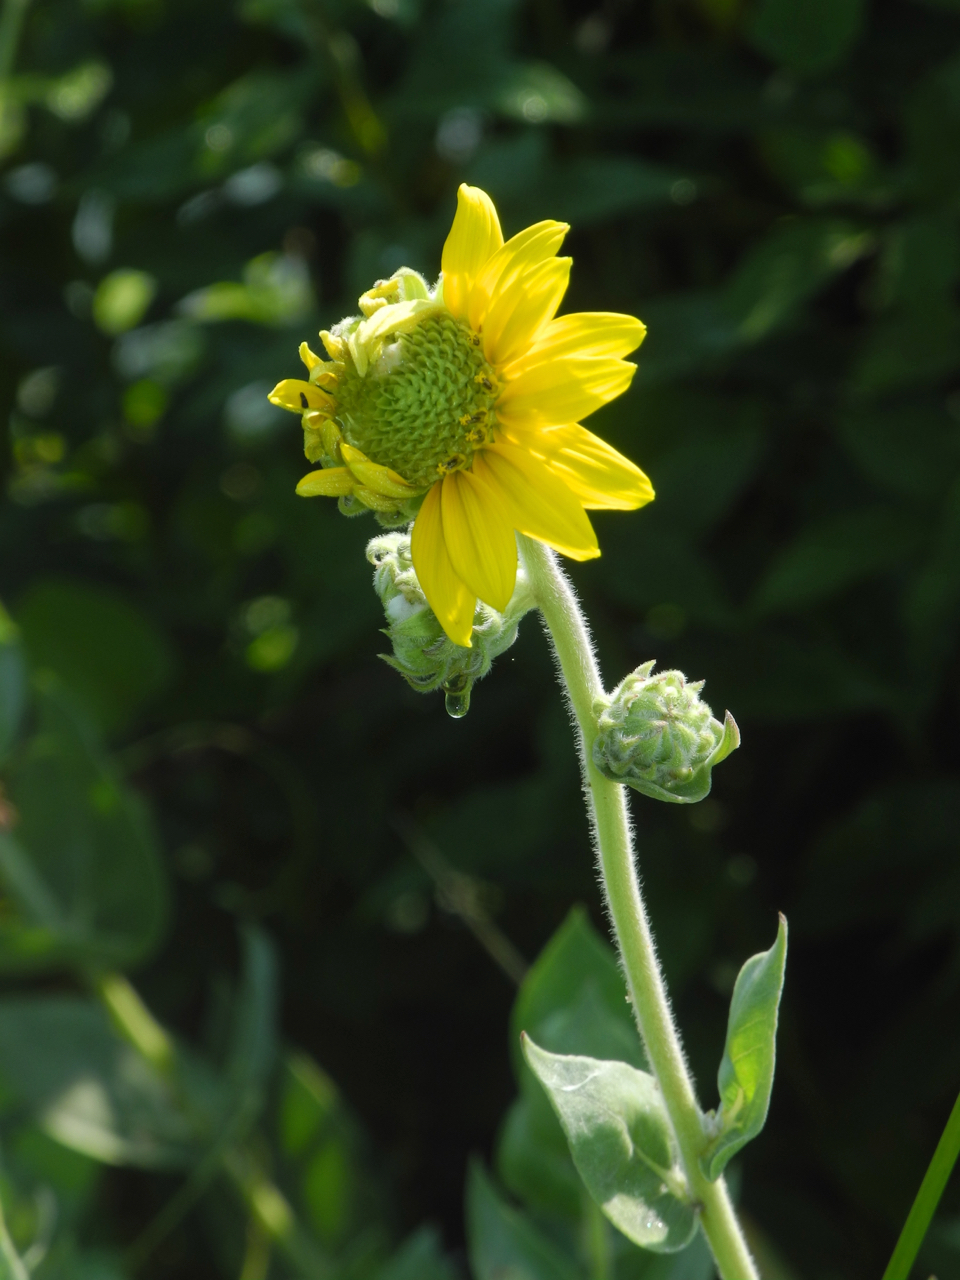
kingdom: Plantae
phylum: Tracheophyta
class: Magnoliopsida
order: Asterales
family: Asteraceae
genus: Helianthus
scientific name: Helianthus mollis
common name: Ashy sunflower
